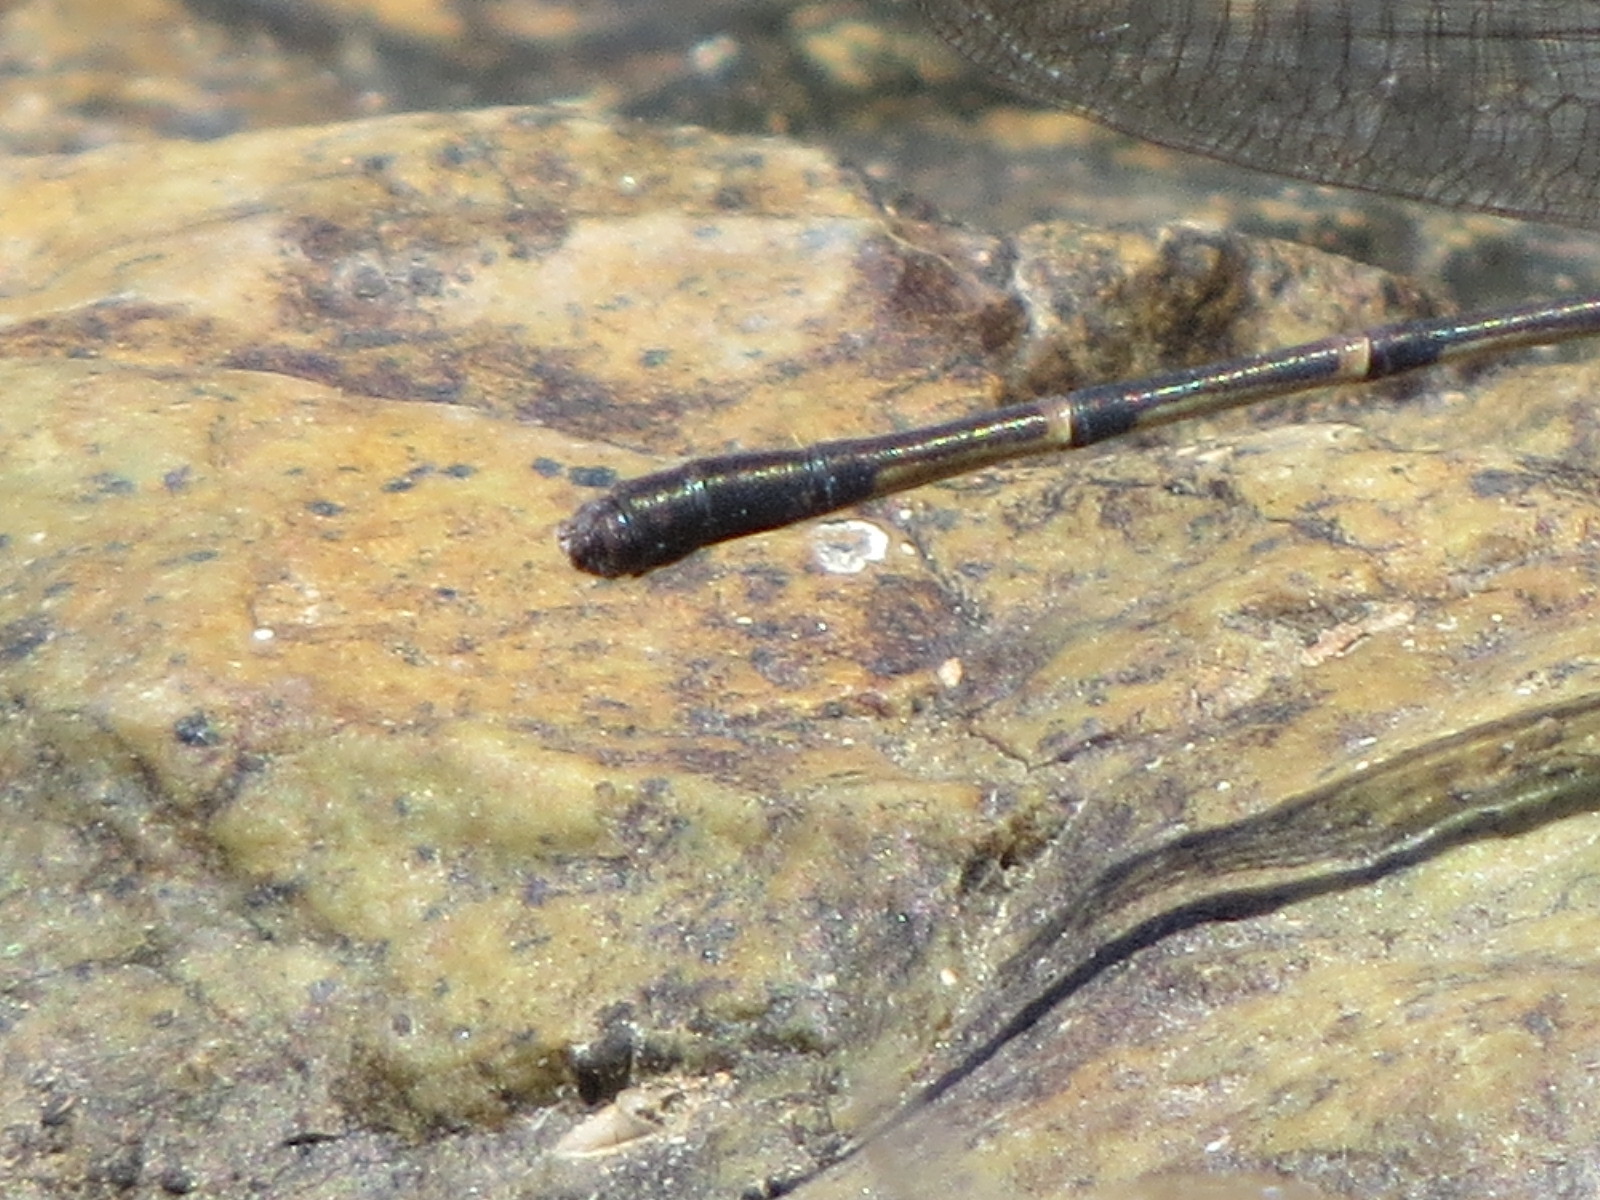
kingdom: Animalia
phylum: Arthropoda
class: Insecta
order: Odonata
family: Coenagrionidae
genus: Argia
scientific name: Argia lugens
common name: Sooty dancer
